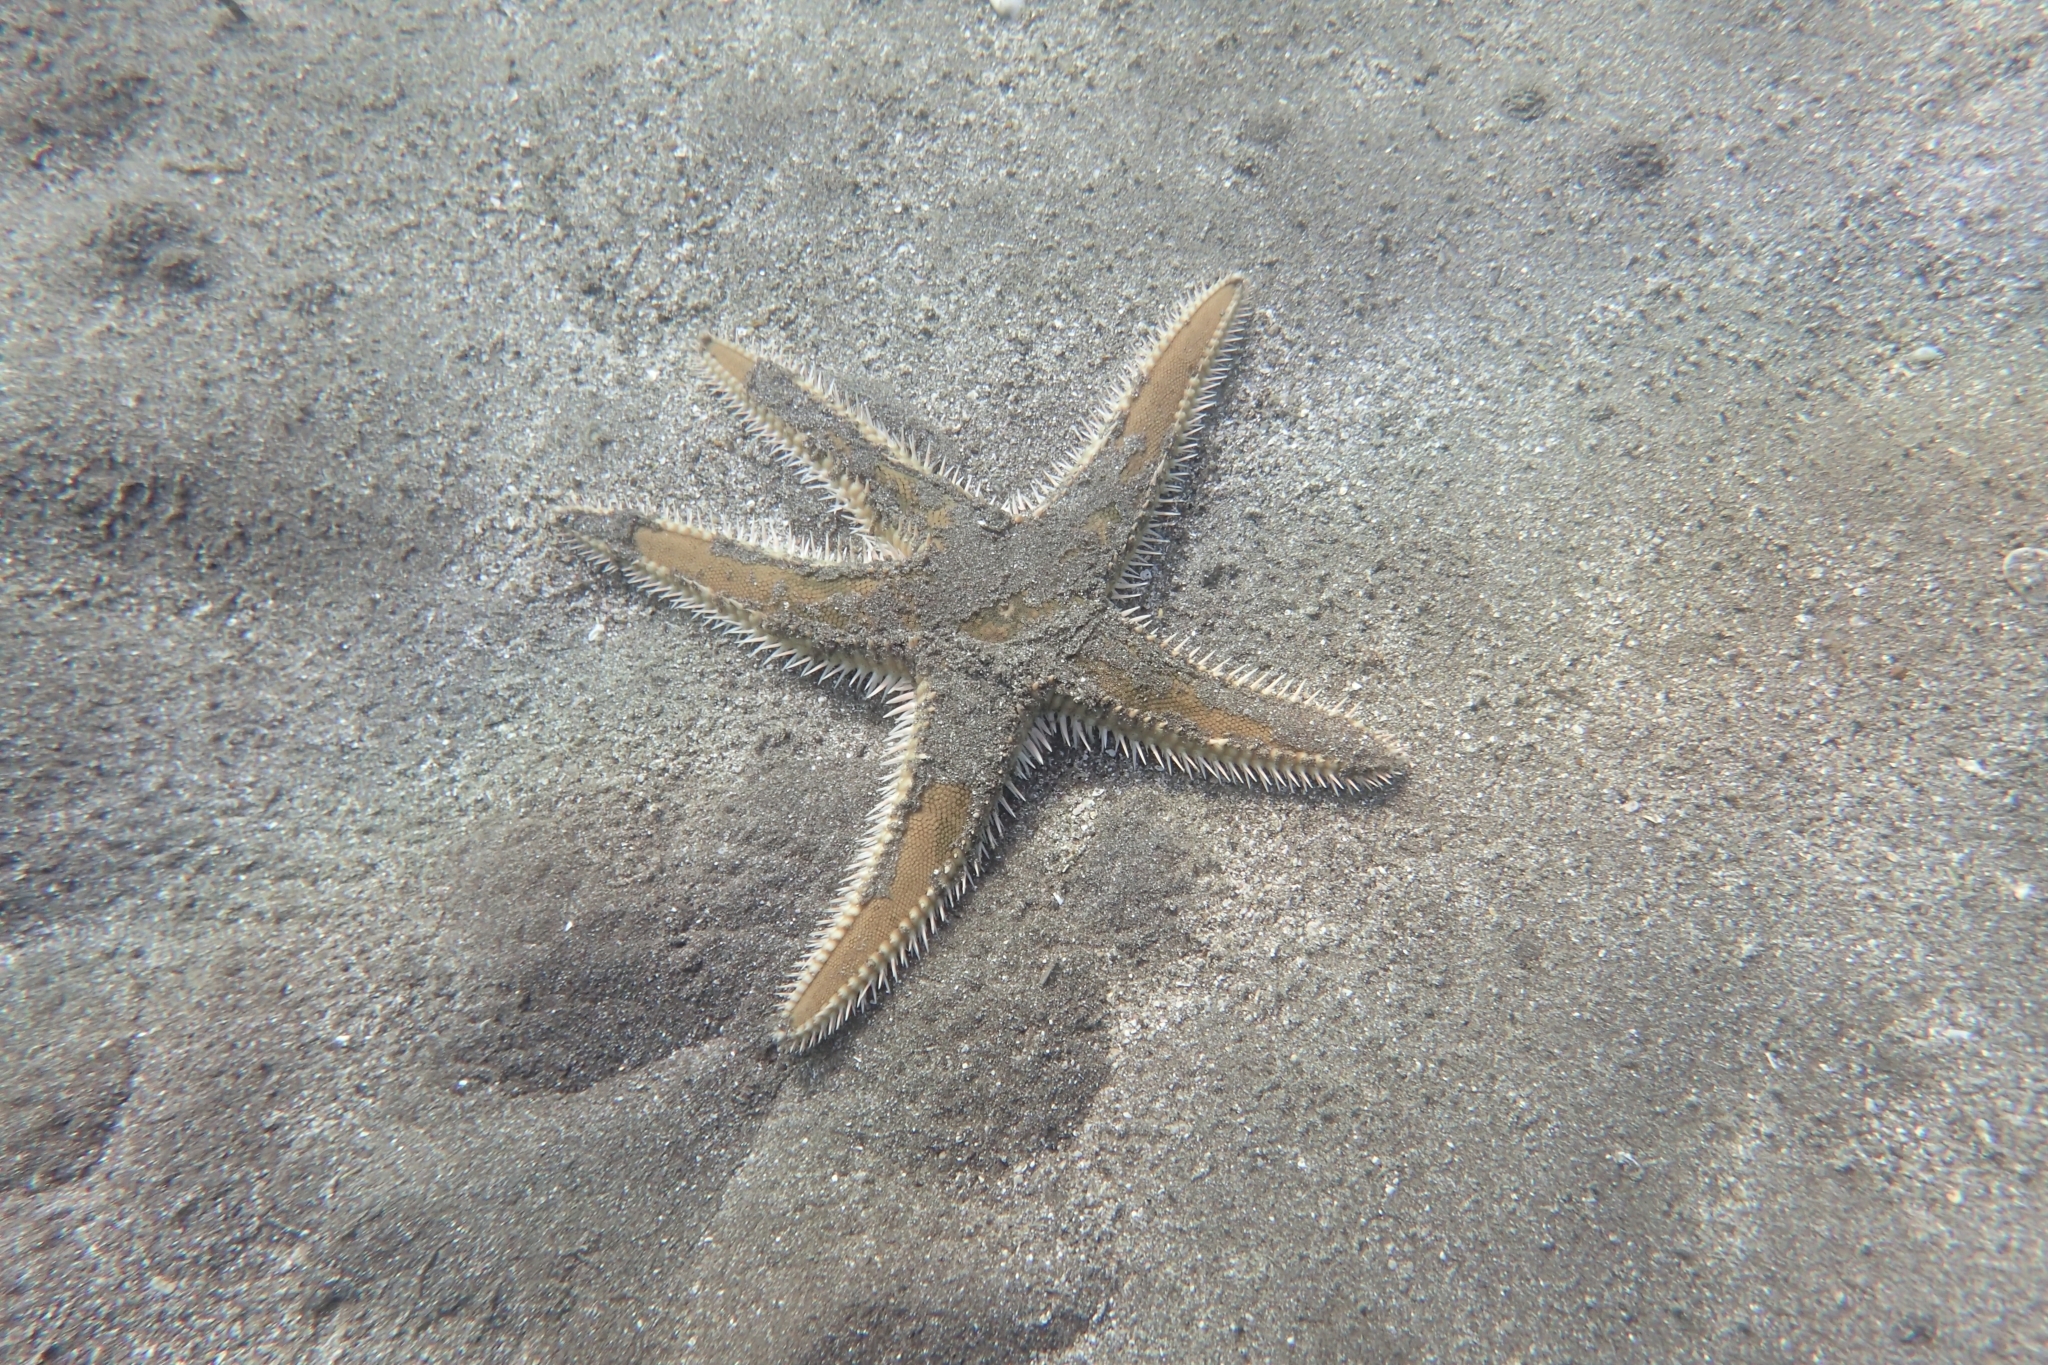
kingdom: Animalia
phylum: Echinodermata
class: Asteroidea
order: Paxillosida
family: Astropectinidae
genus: Astropecten
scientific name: Astropecten polyacanthus
